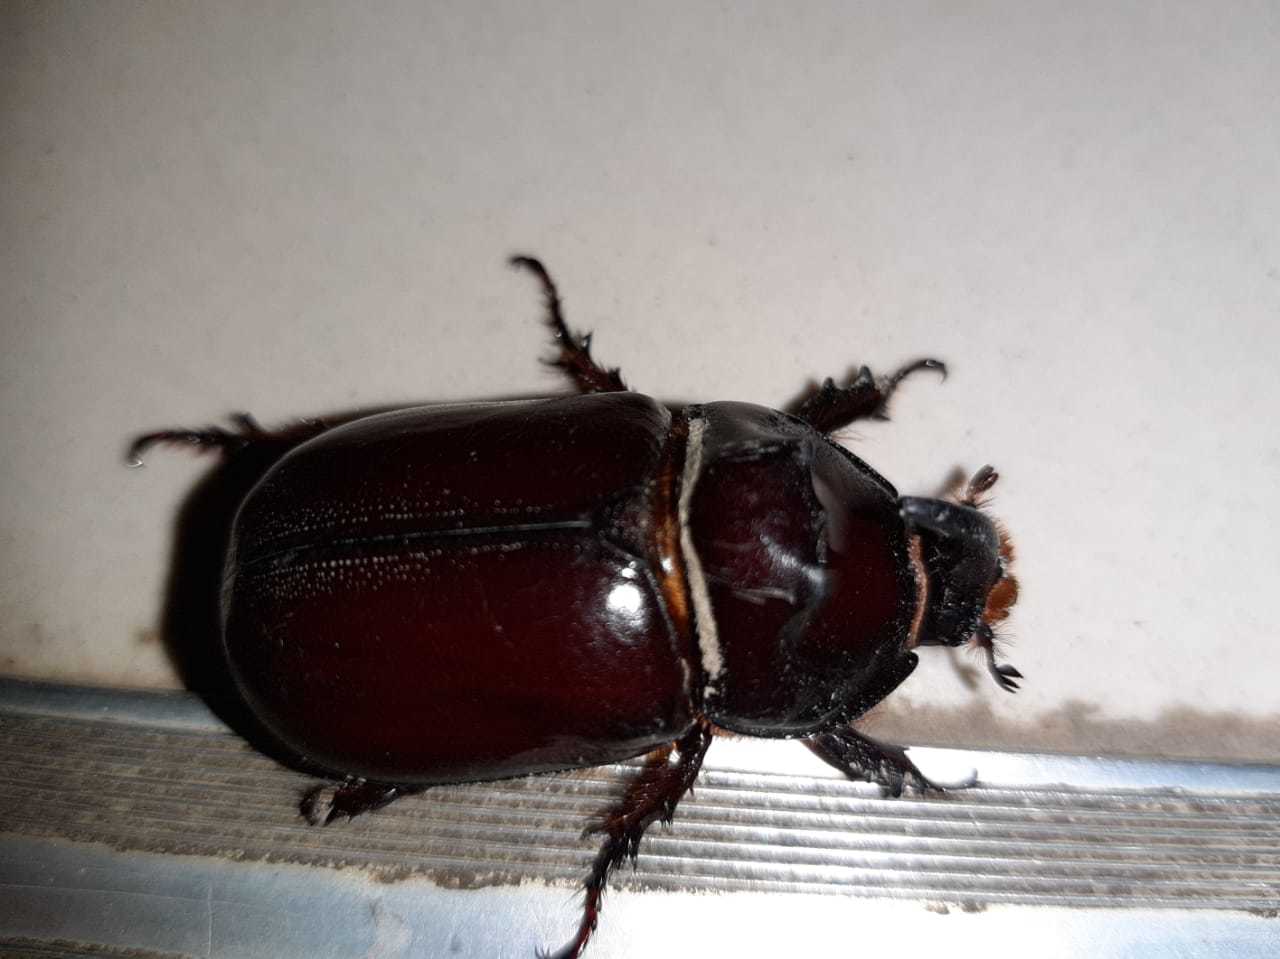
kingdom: Animalia
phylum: Arthropoda
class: Insecta
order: Coleoptera
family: Scarabaeidae
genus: Oryctes
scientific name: Oryctes nasicornis
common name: European rhinoceros beetle
